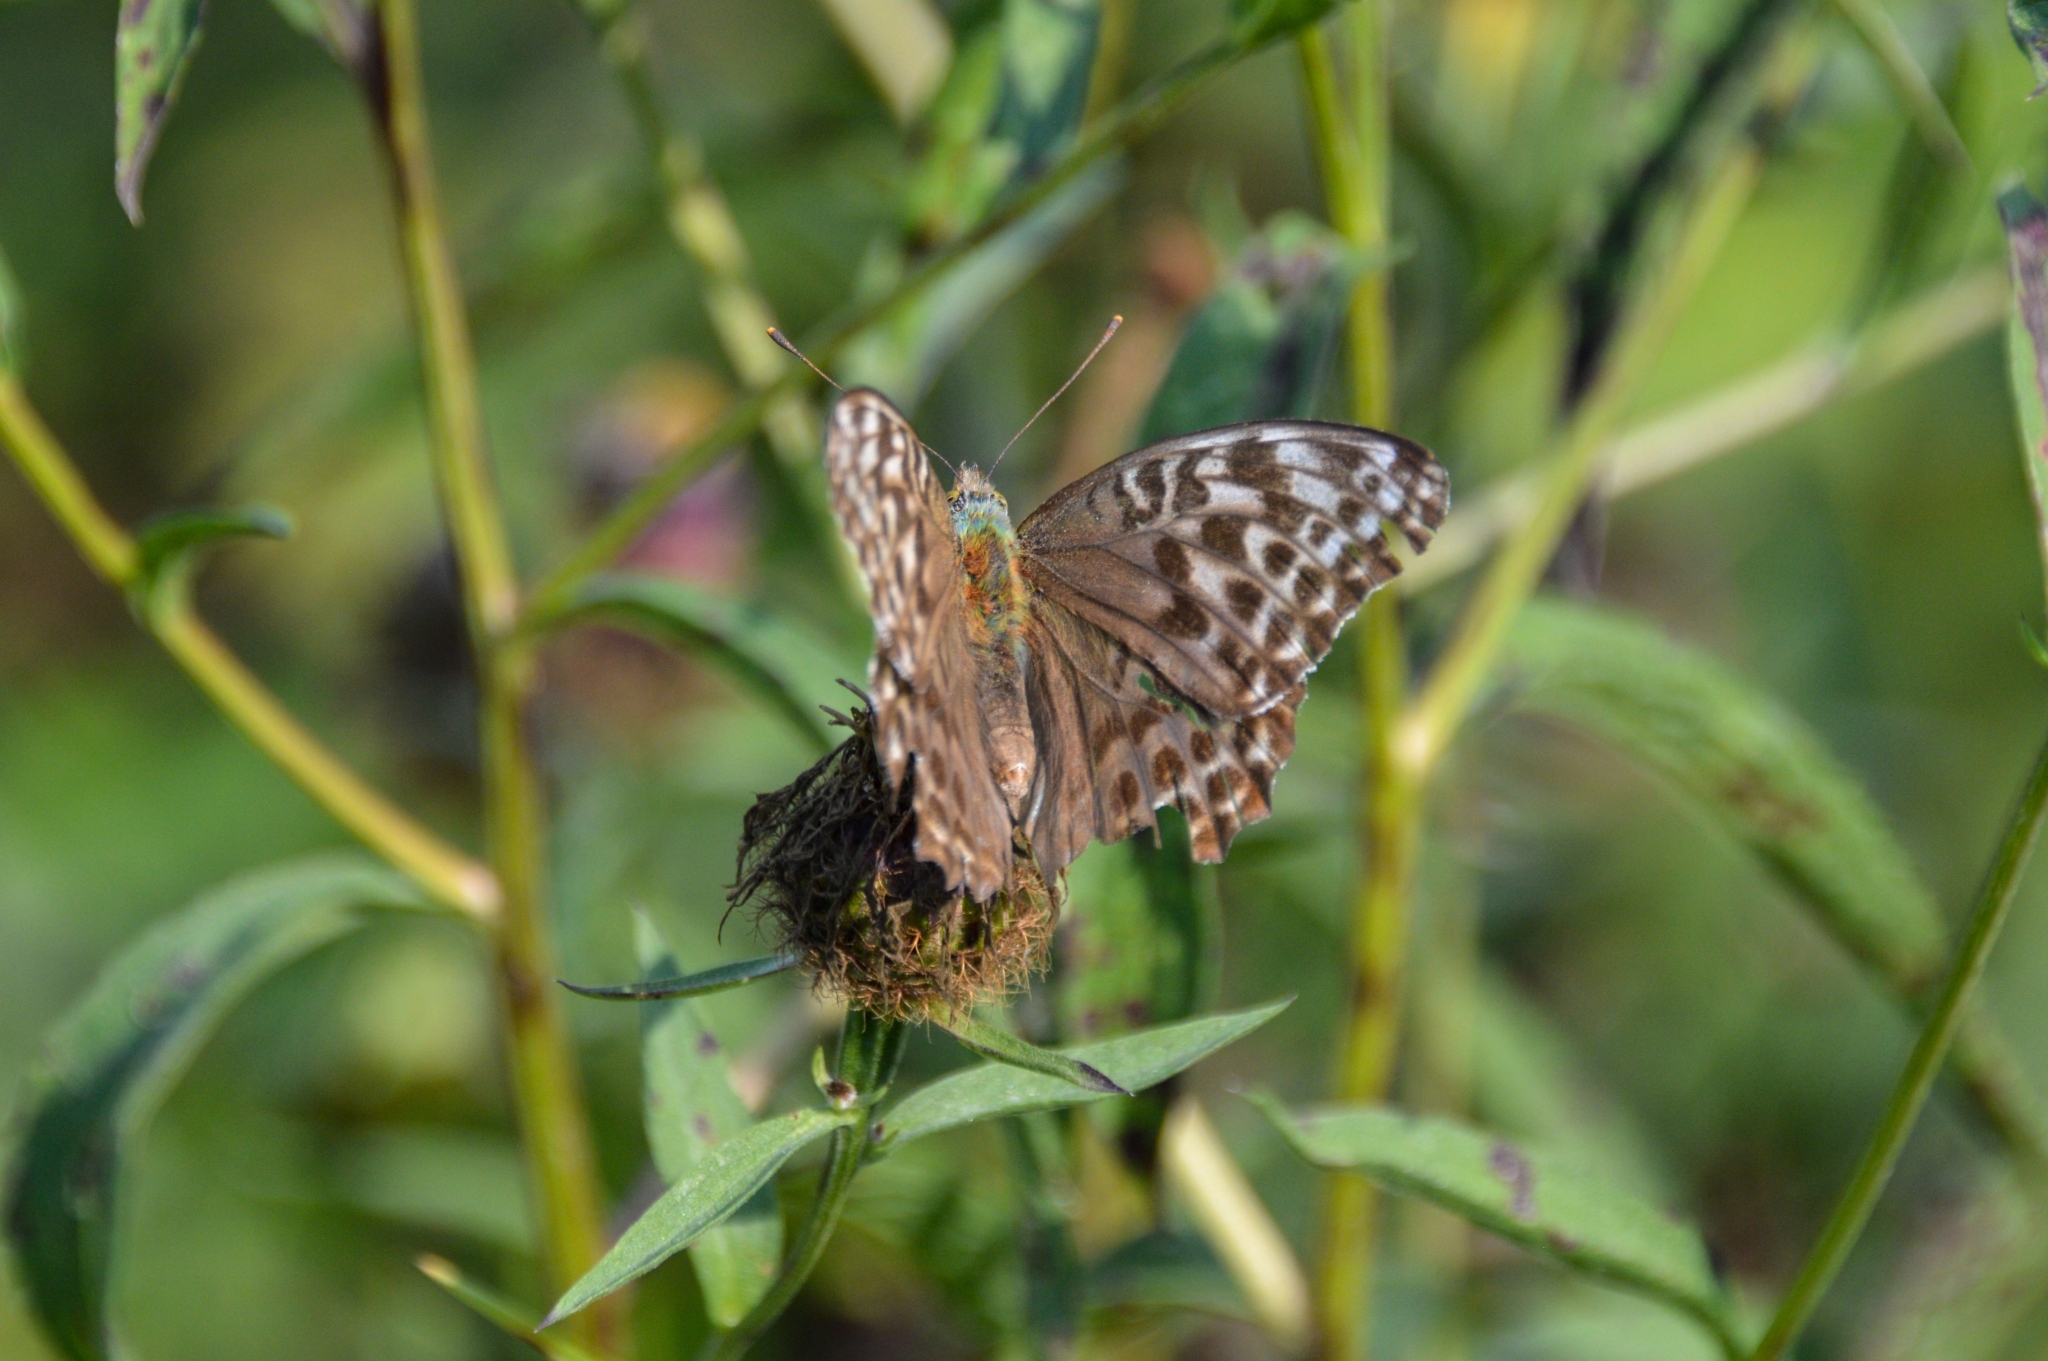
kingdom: Animalia
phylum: Arthropoda
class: Insecta
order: Lepidoptera
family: Nymphalidae
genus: Argynnis
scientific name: Argynnis paphia
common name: Silver-washed fritillary
